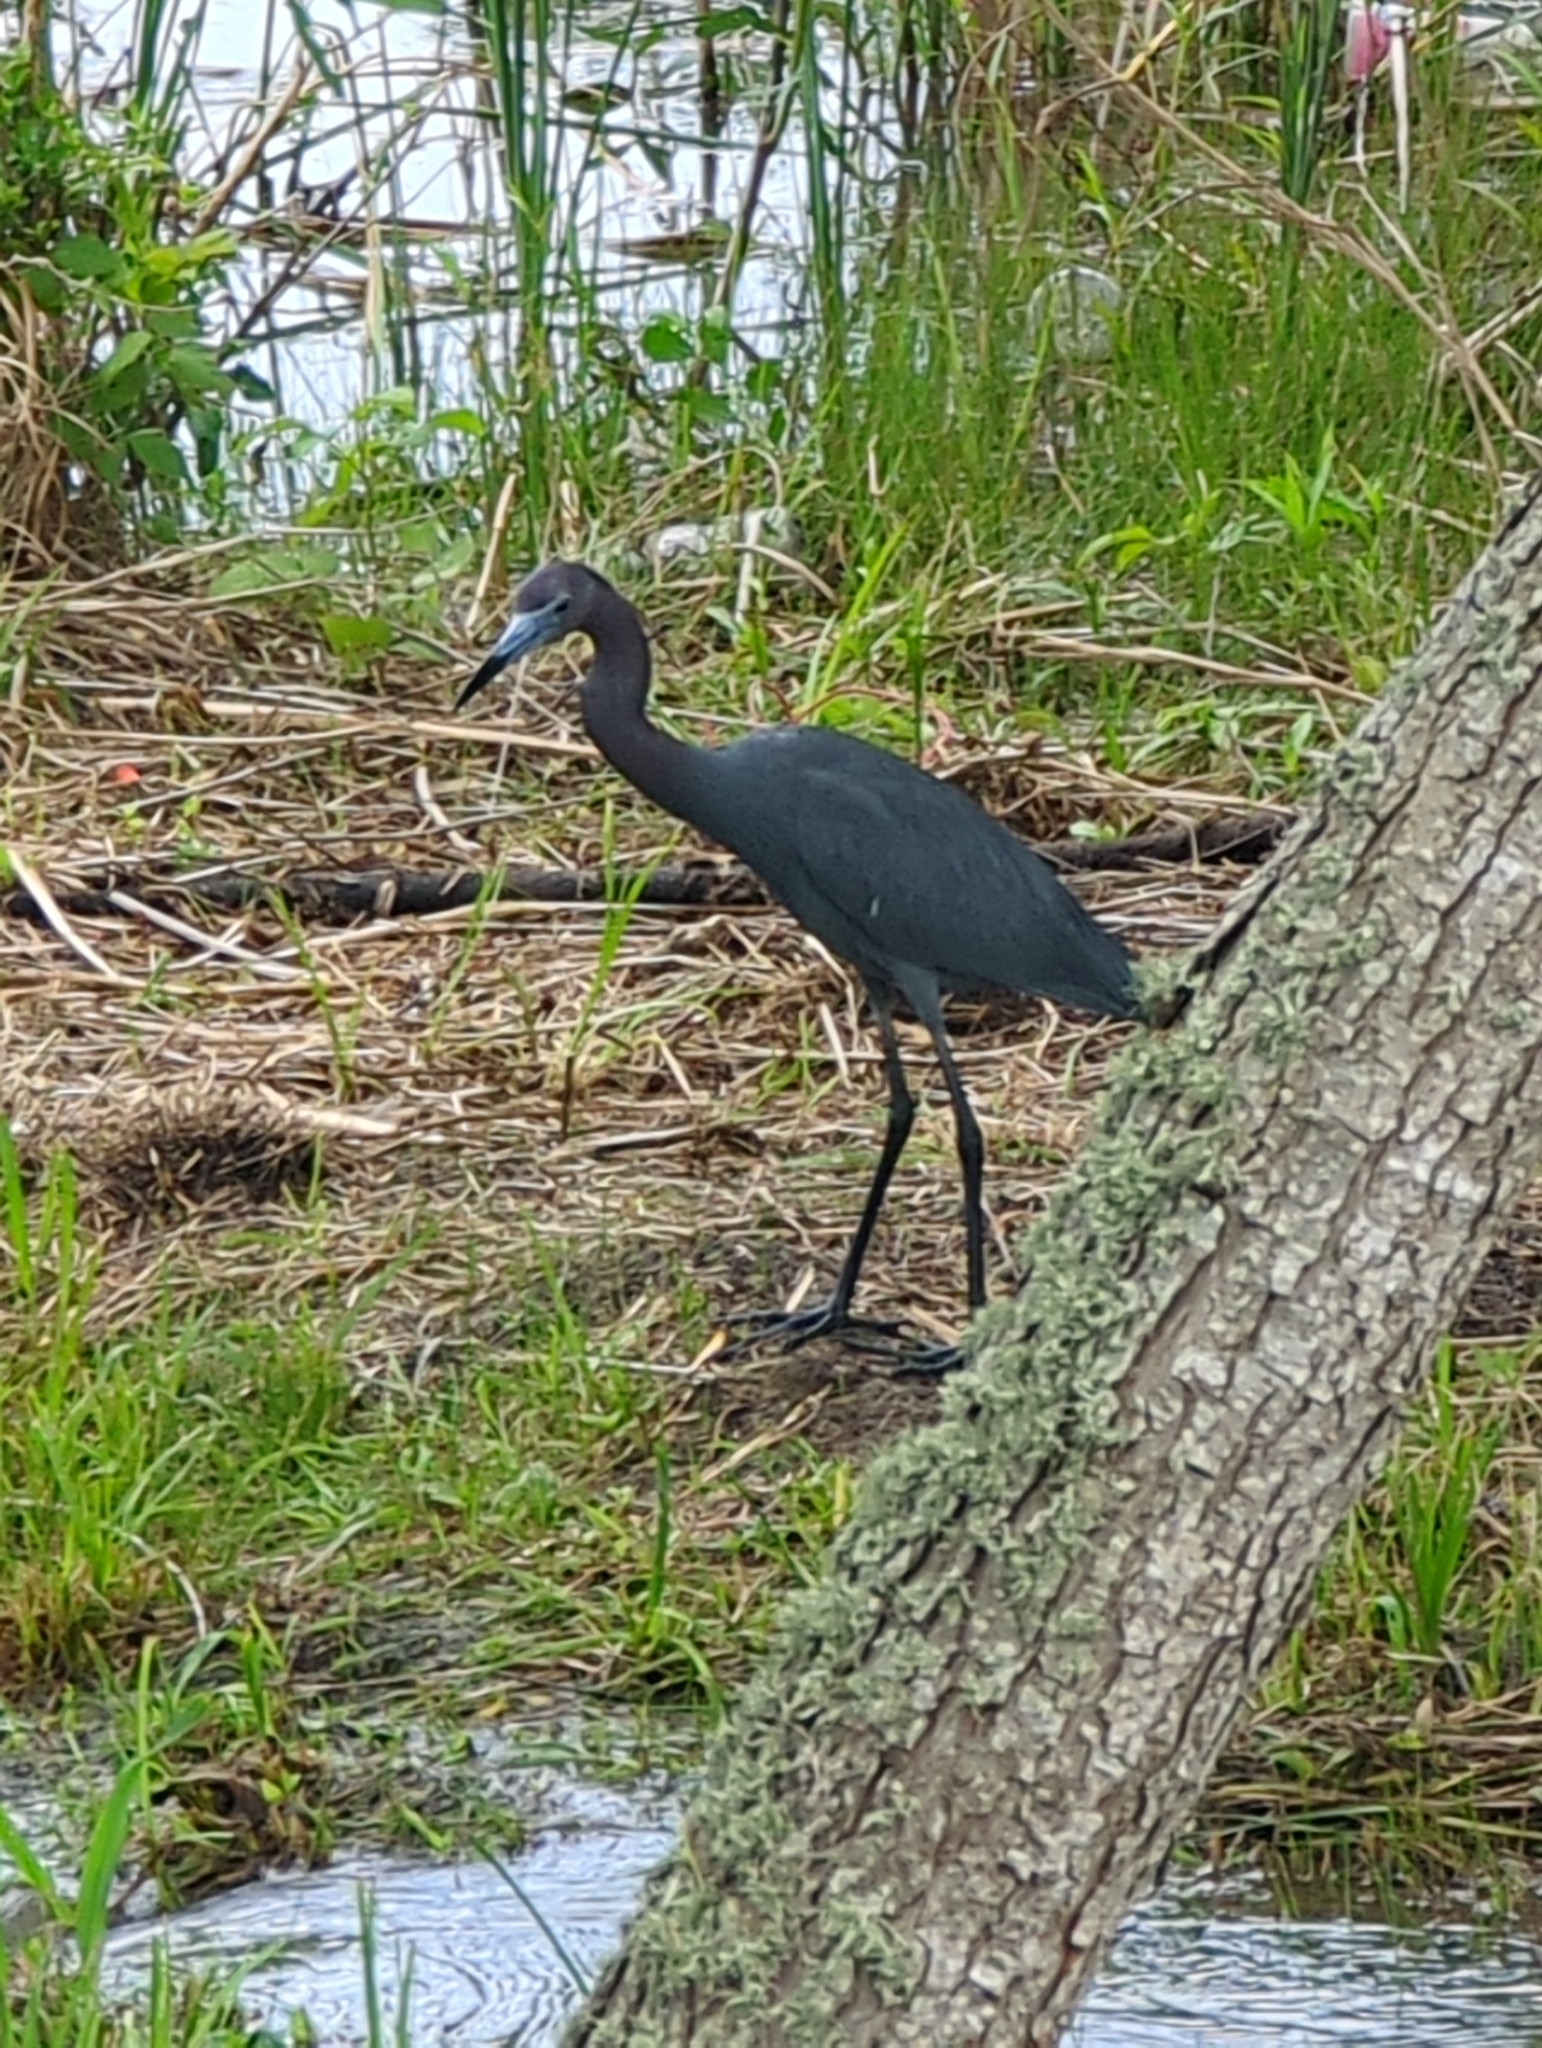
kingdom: Animalia
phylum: Chordata
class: Aves
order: Pelecaniformes
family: Ardeidae
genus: Egretta
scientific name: Egretta caerulea
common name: Little blue heron
